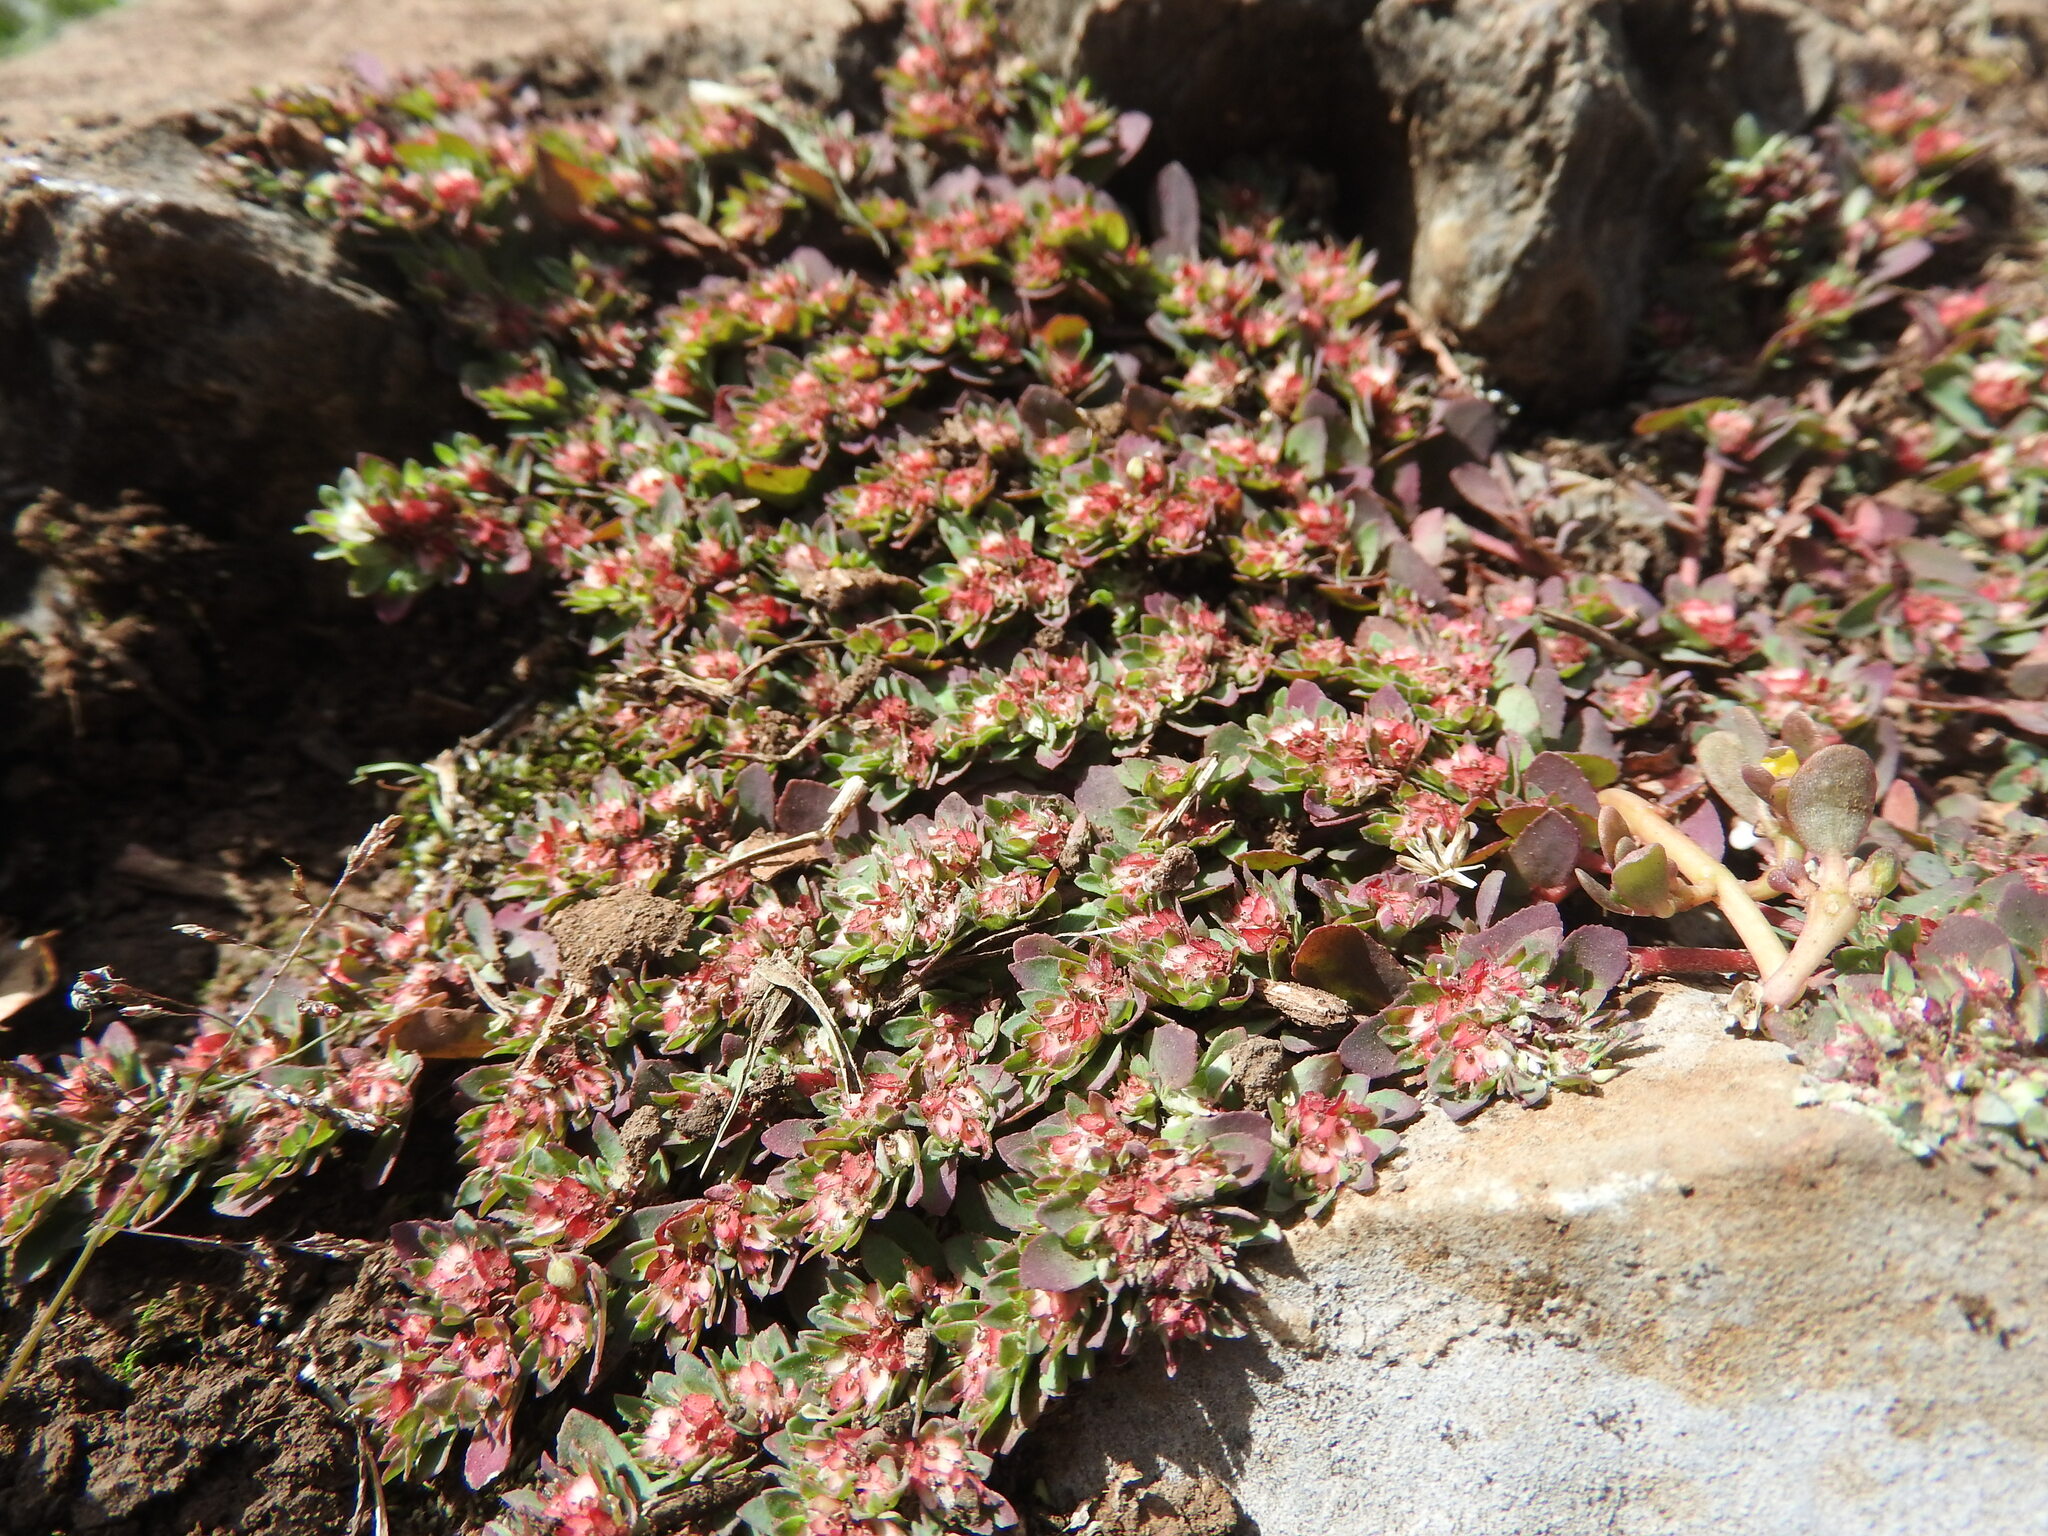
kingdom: Plantae
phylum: Tracheophyta
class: Magnoliopsida
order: Malpighiales
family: Euphorbiaceae
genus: Euphorbia
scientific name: Euphorbia indivisa
